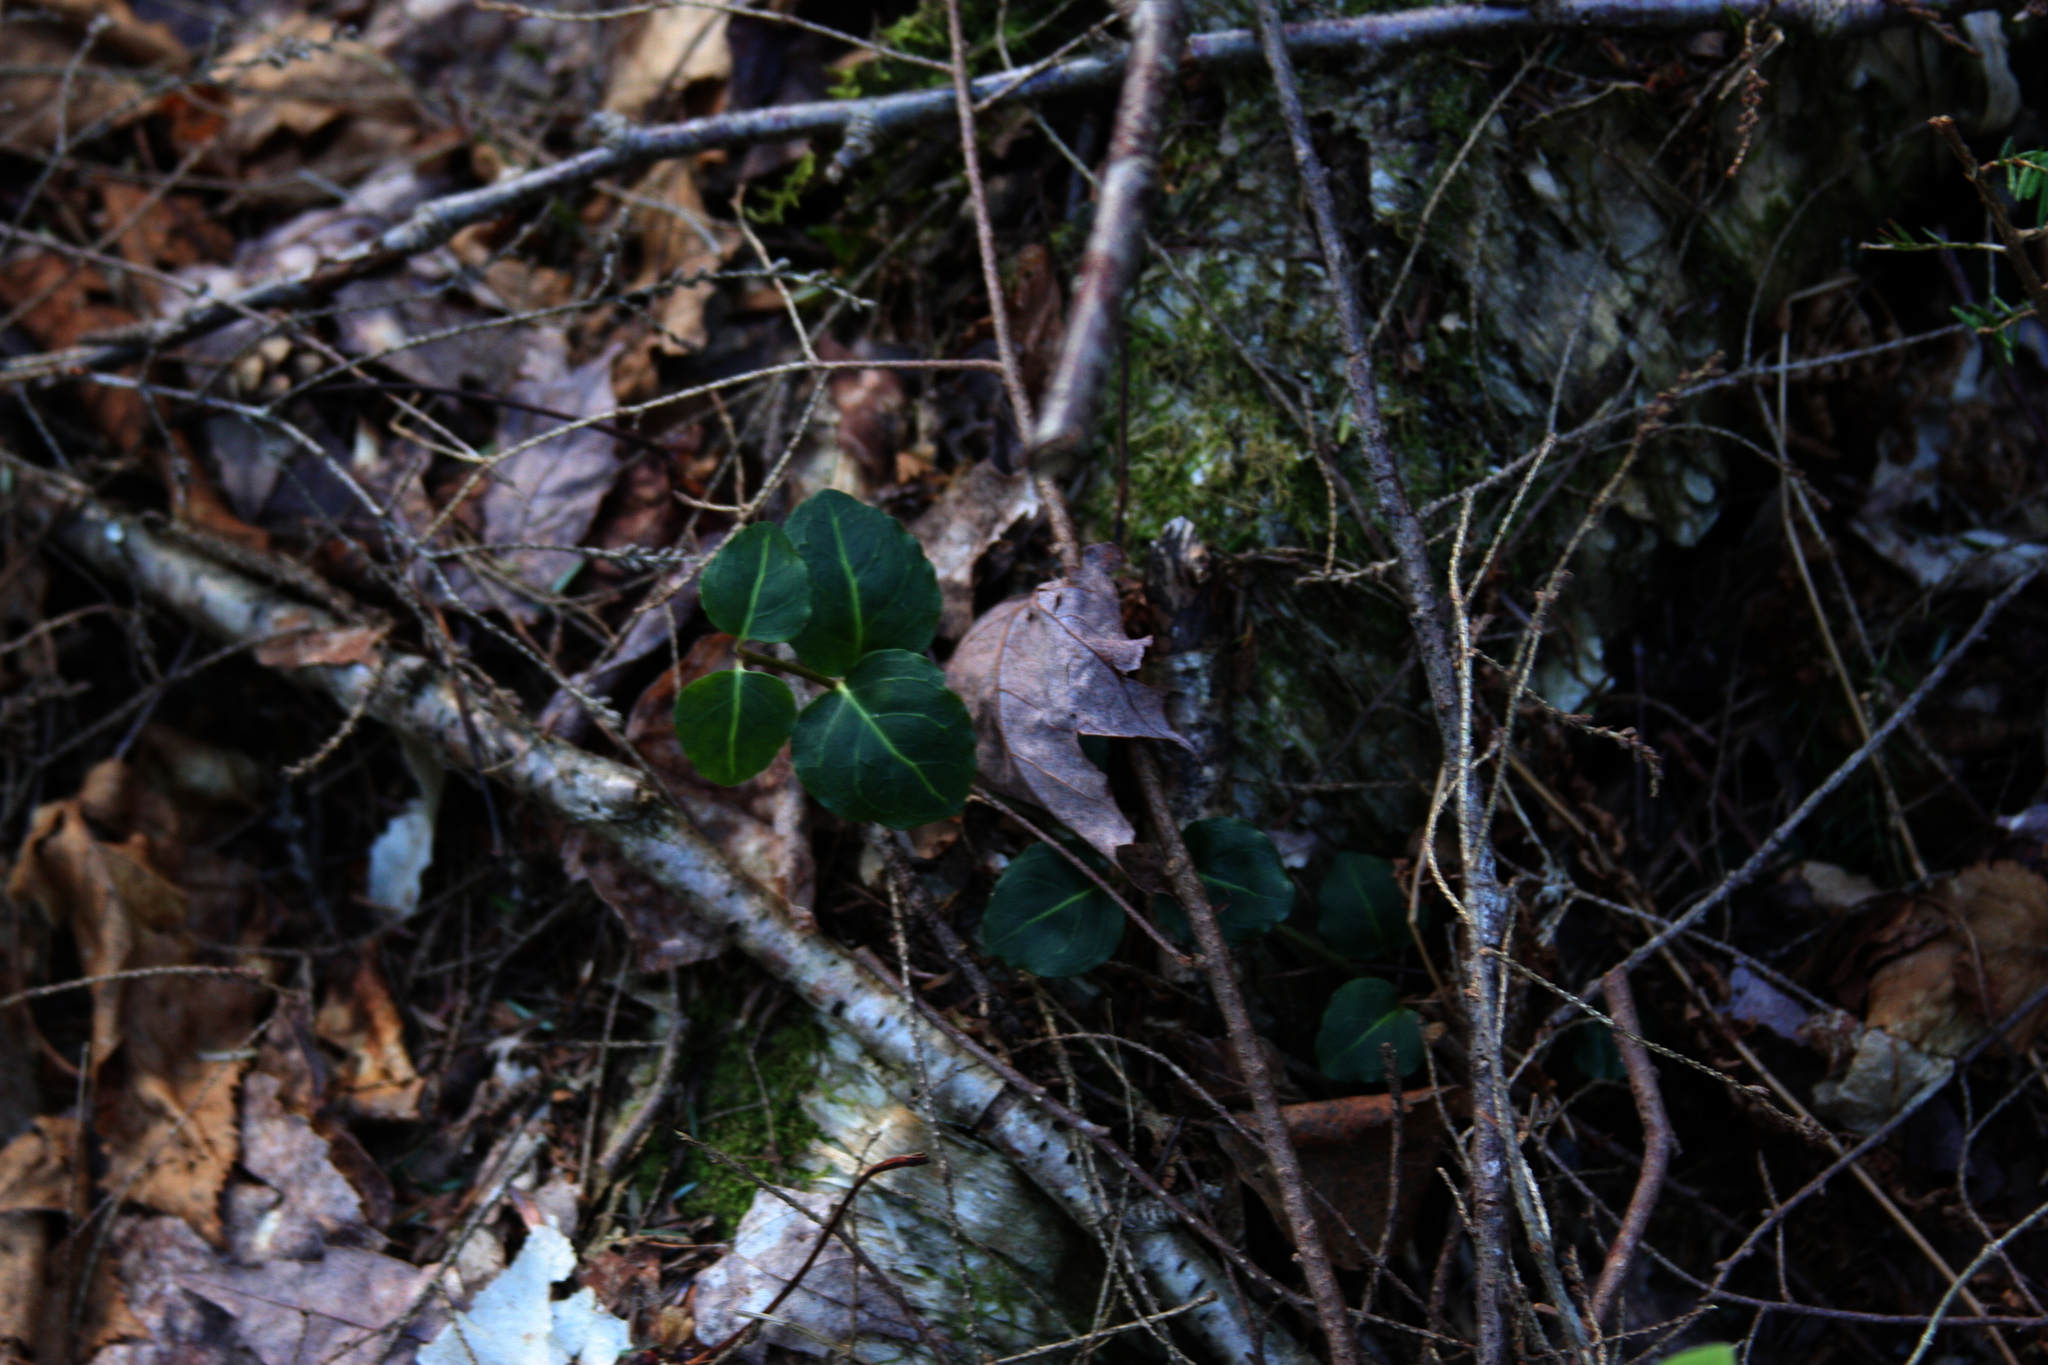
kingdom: Plantae
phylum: Tracheophyta
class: Magnoliopsida
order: Gentianales
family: Rubiaceae
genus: Mitchella
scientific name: Mitchella repens
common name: Partridge-berry
